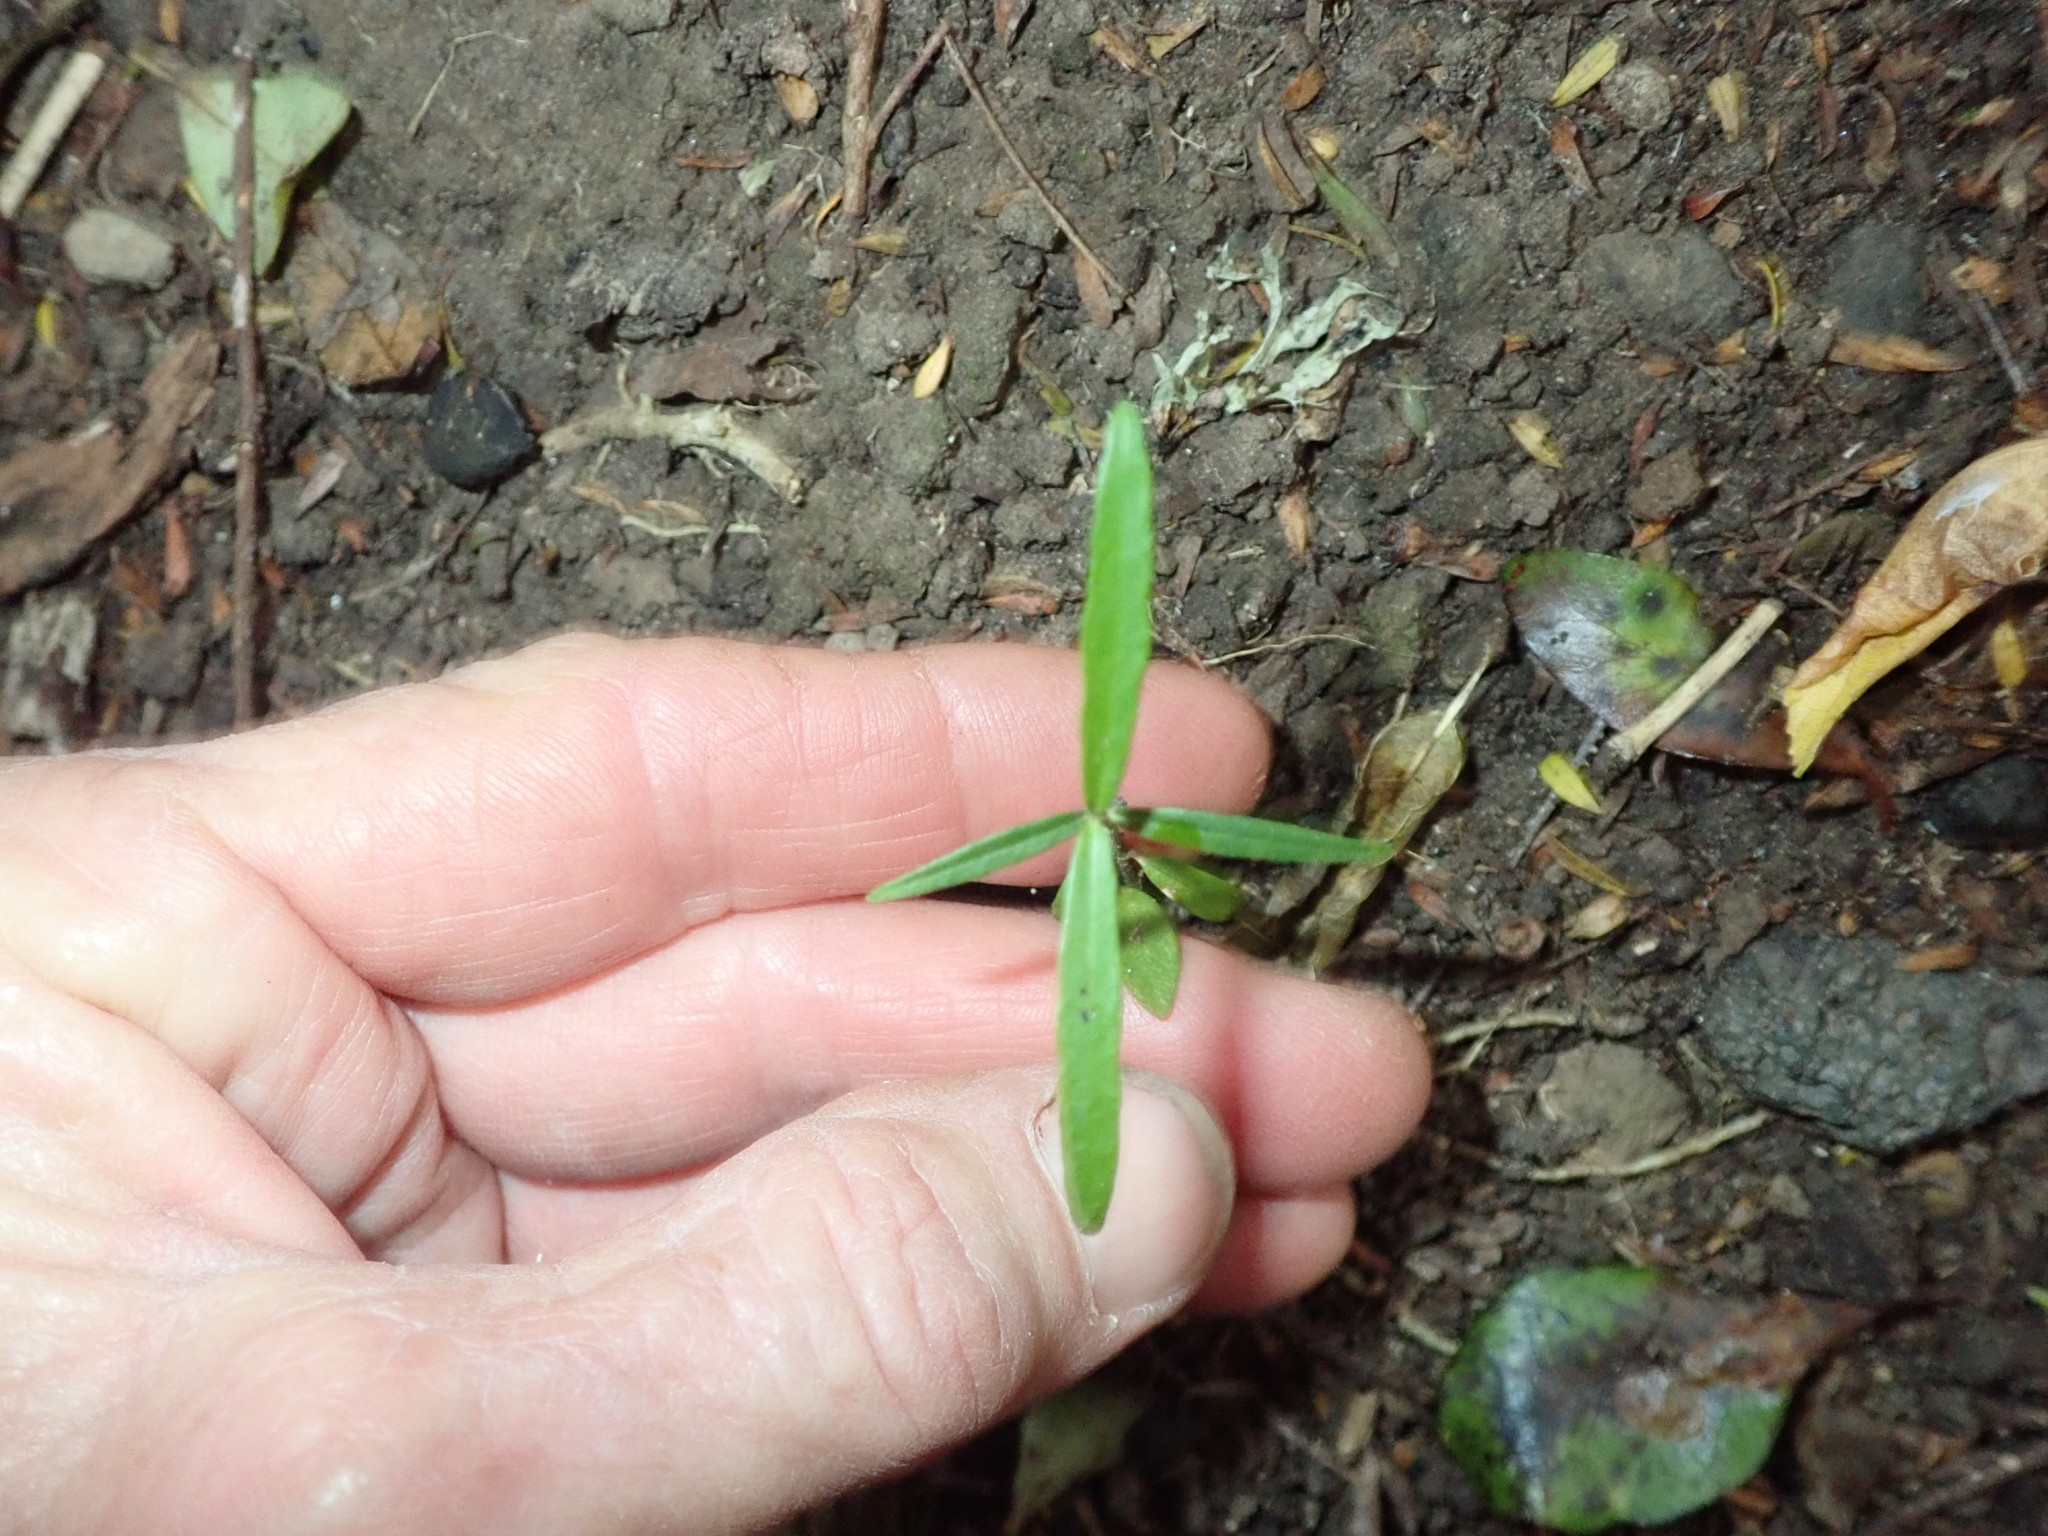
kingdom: Plantae
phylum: Tracheophyta
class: Magnoliopsida
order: Gentianales
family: Apocynaceae
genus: Parsonsia
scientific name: Parsonsia heterophylla
